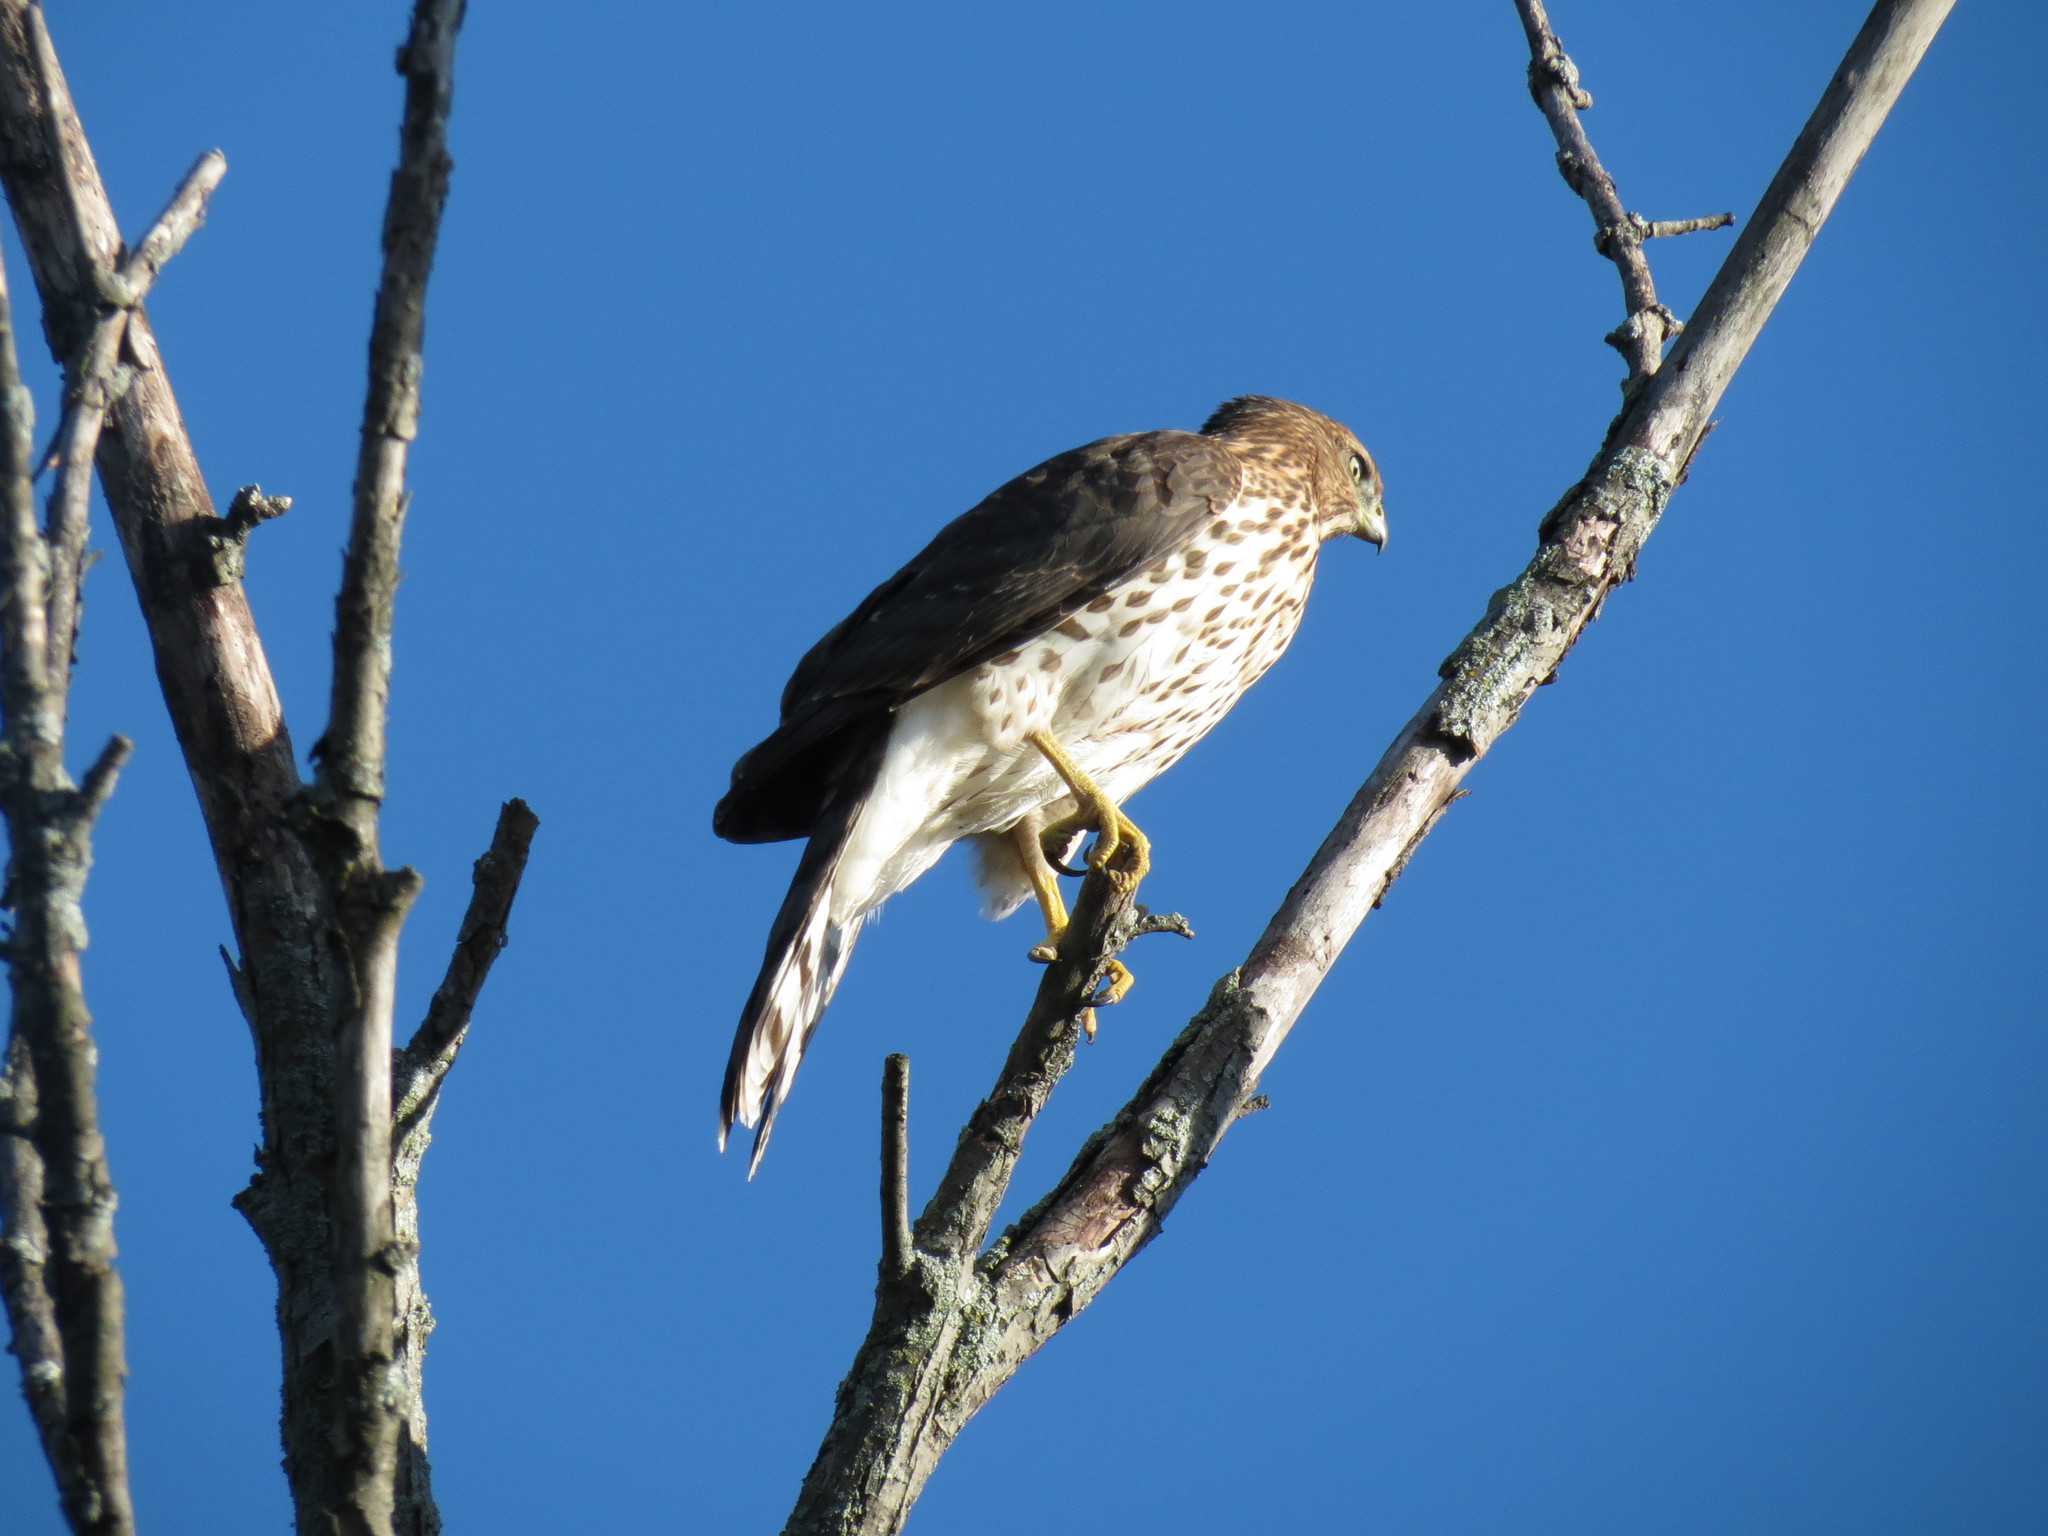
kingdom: Animalia
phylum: Chordata
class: Aves
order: Accipitriformes
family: Accipitridae
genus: Accipiter
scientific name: Accipiter cooperii
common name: Cooper's hawk
